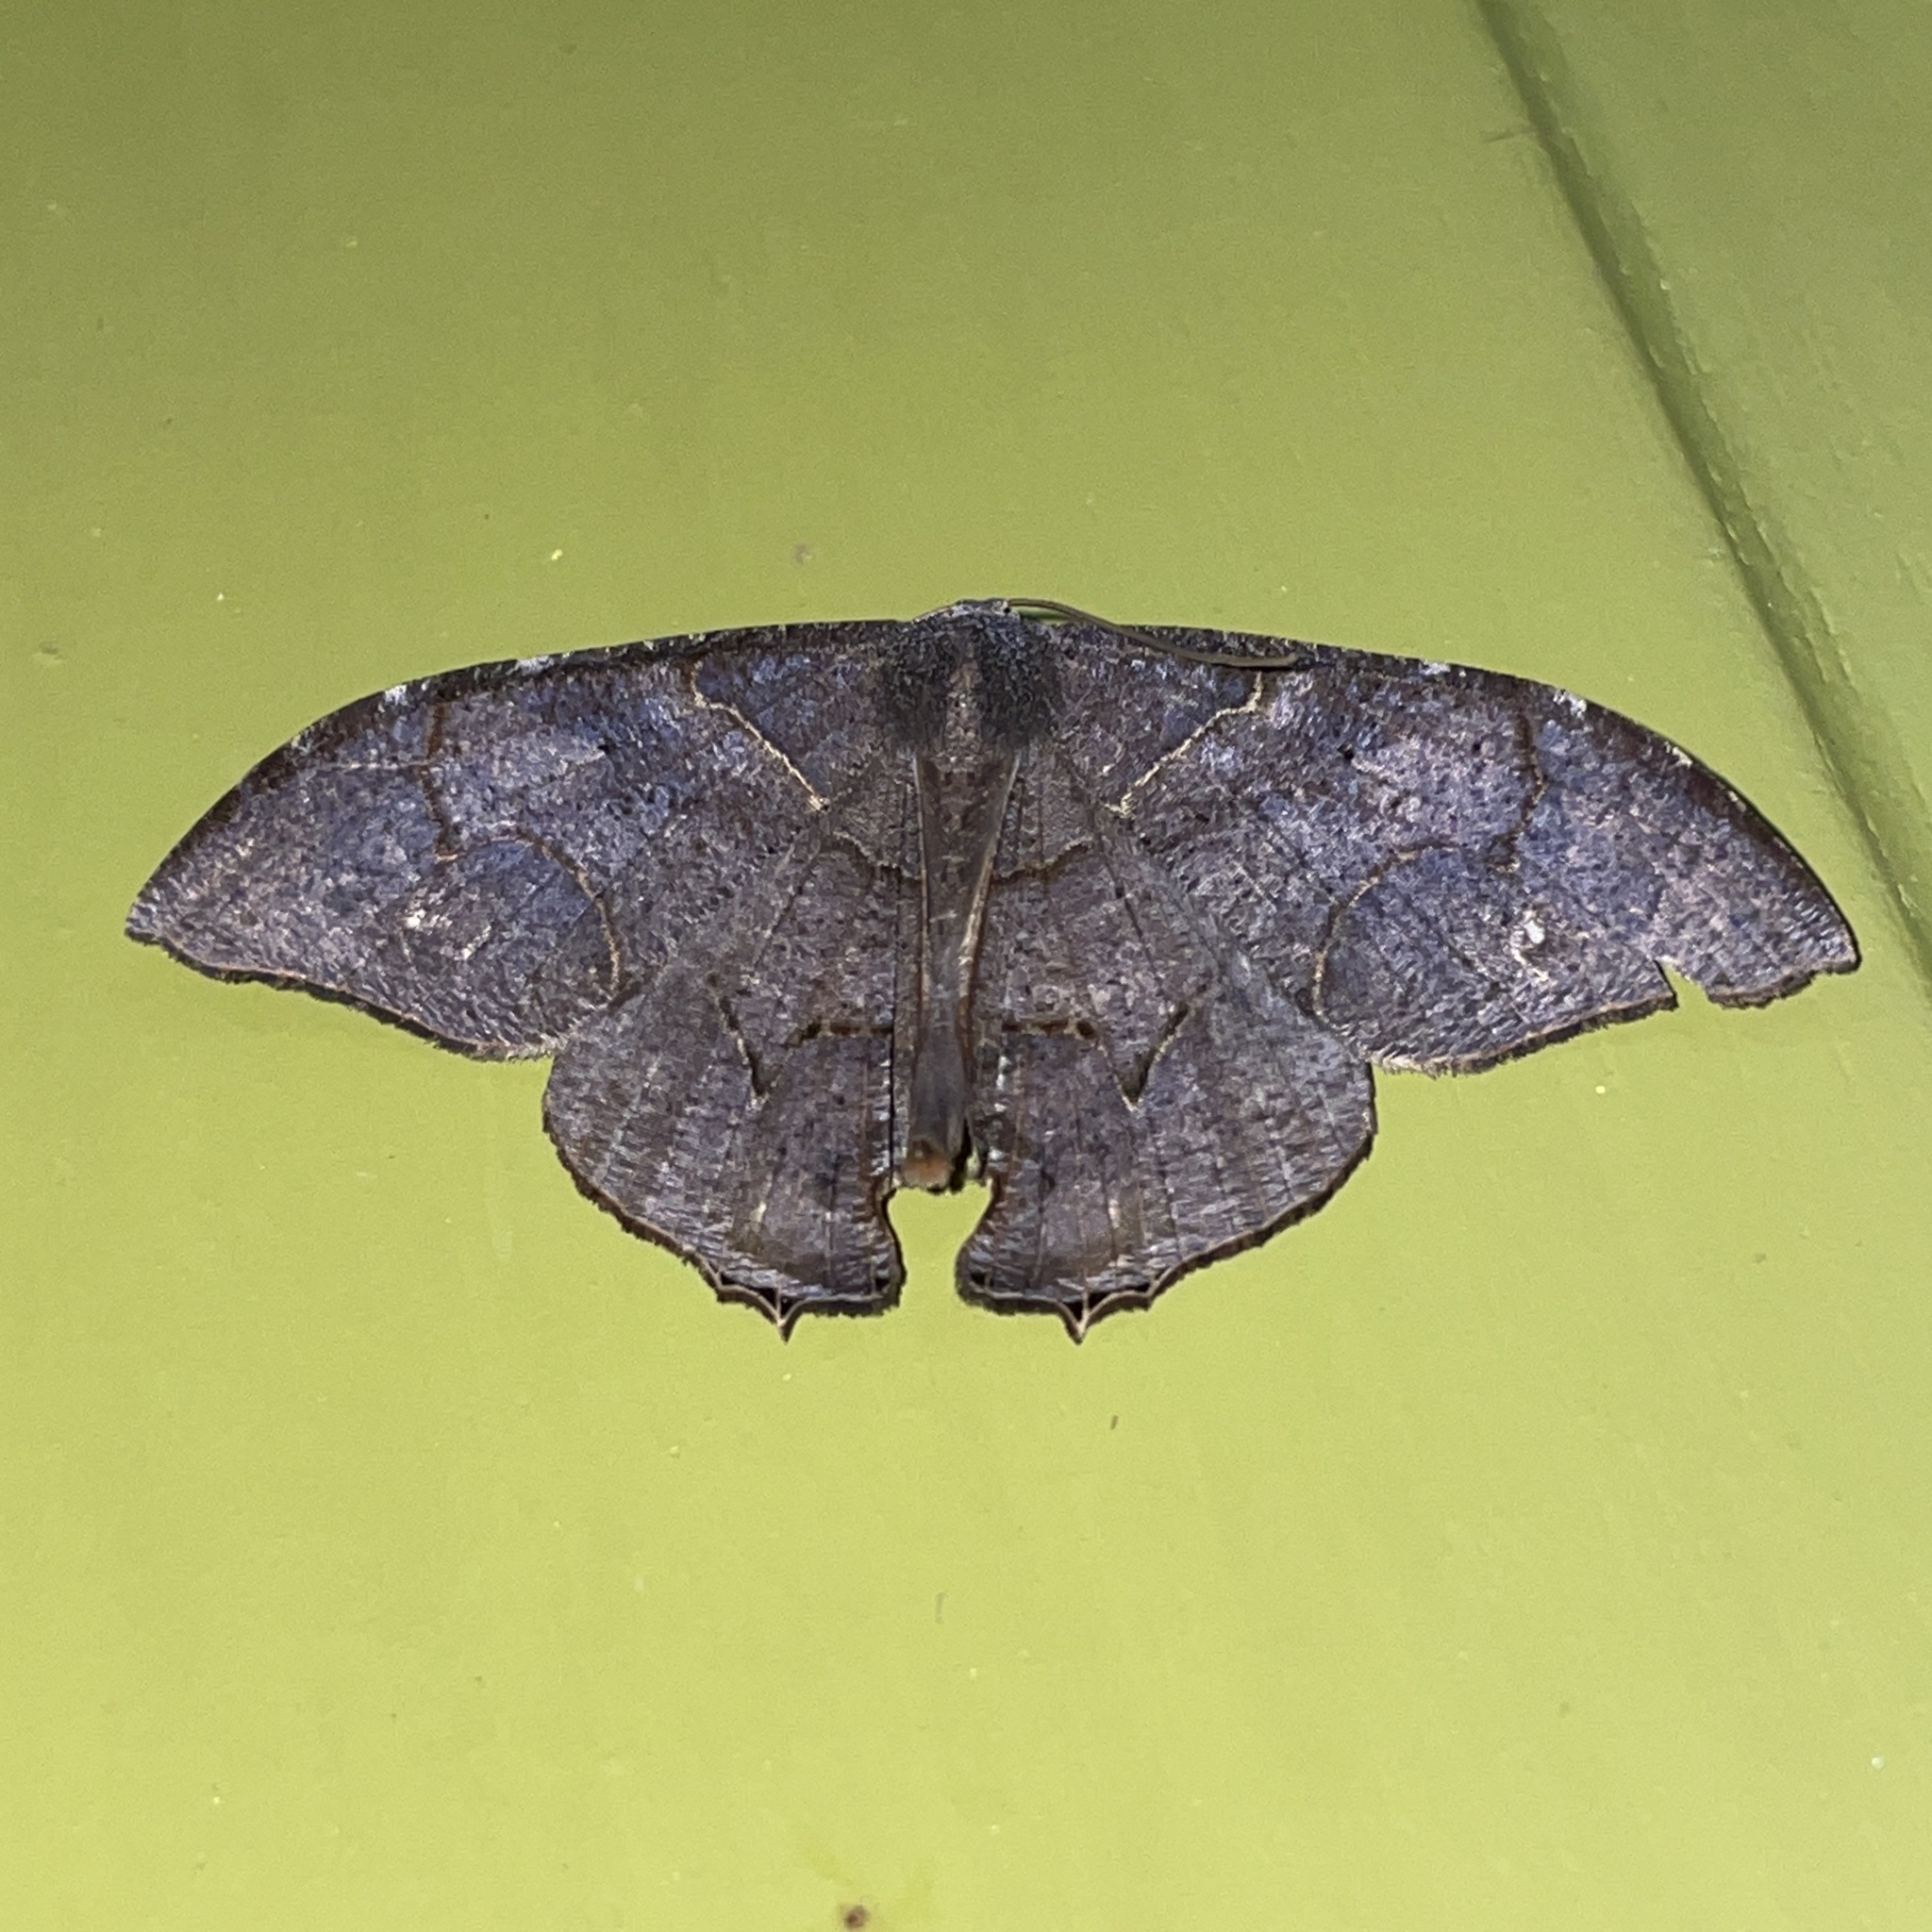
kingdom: Animalia
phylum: Arthropoda
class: Insecta
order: Lepidoptera
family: Uraniidae
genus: Syngria
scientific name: Syngria druidaria
